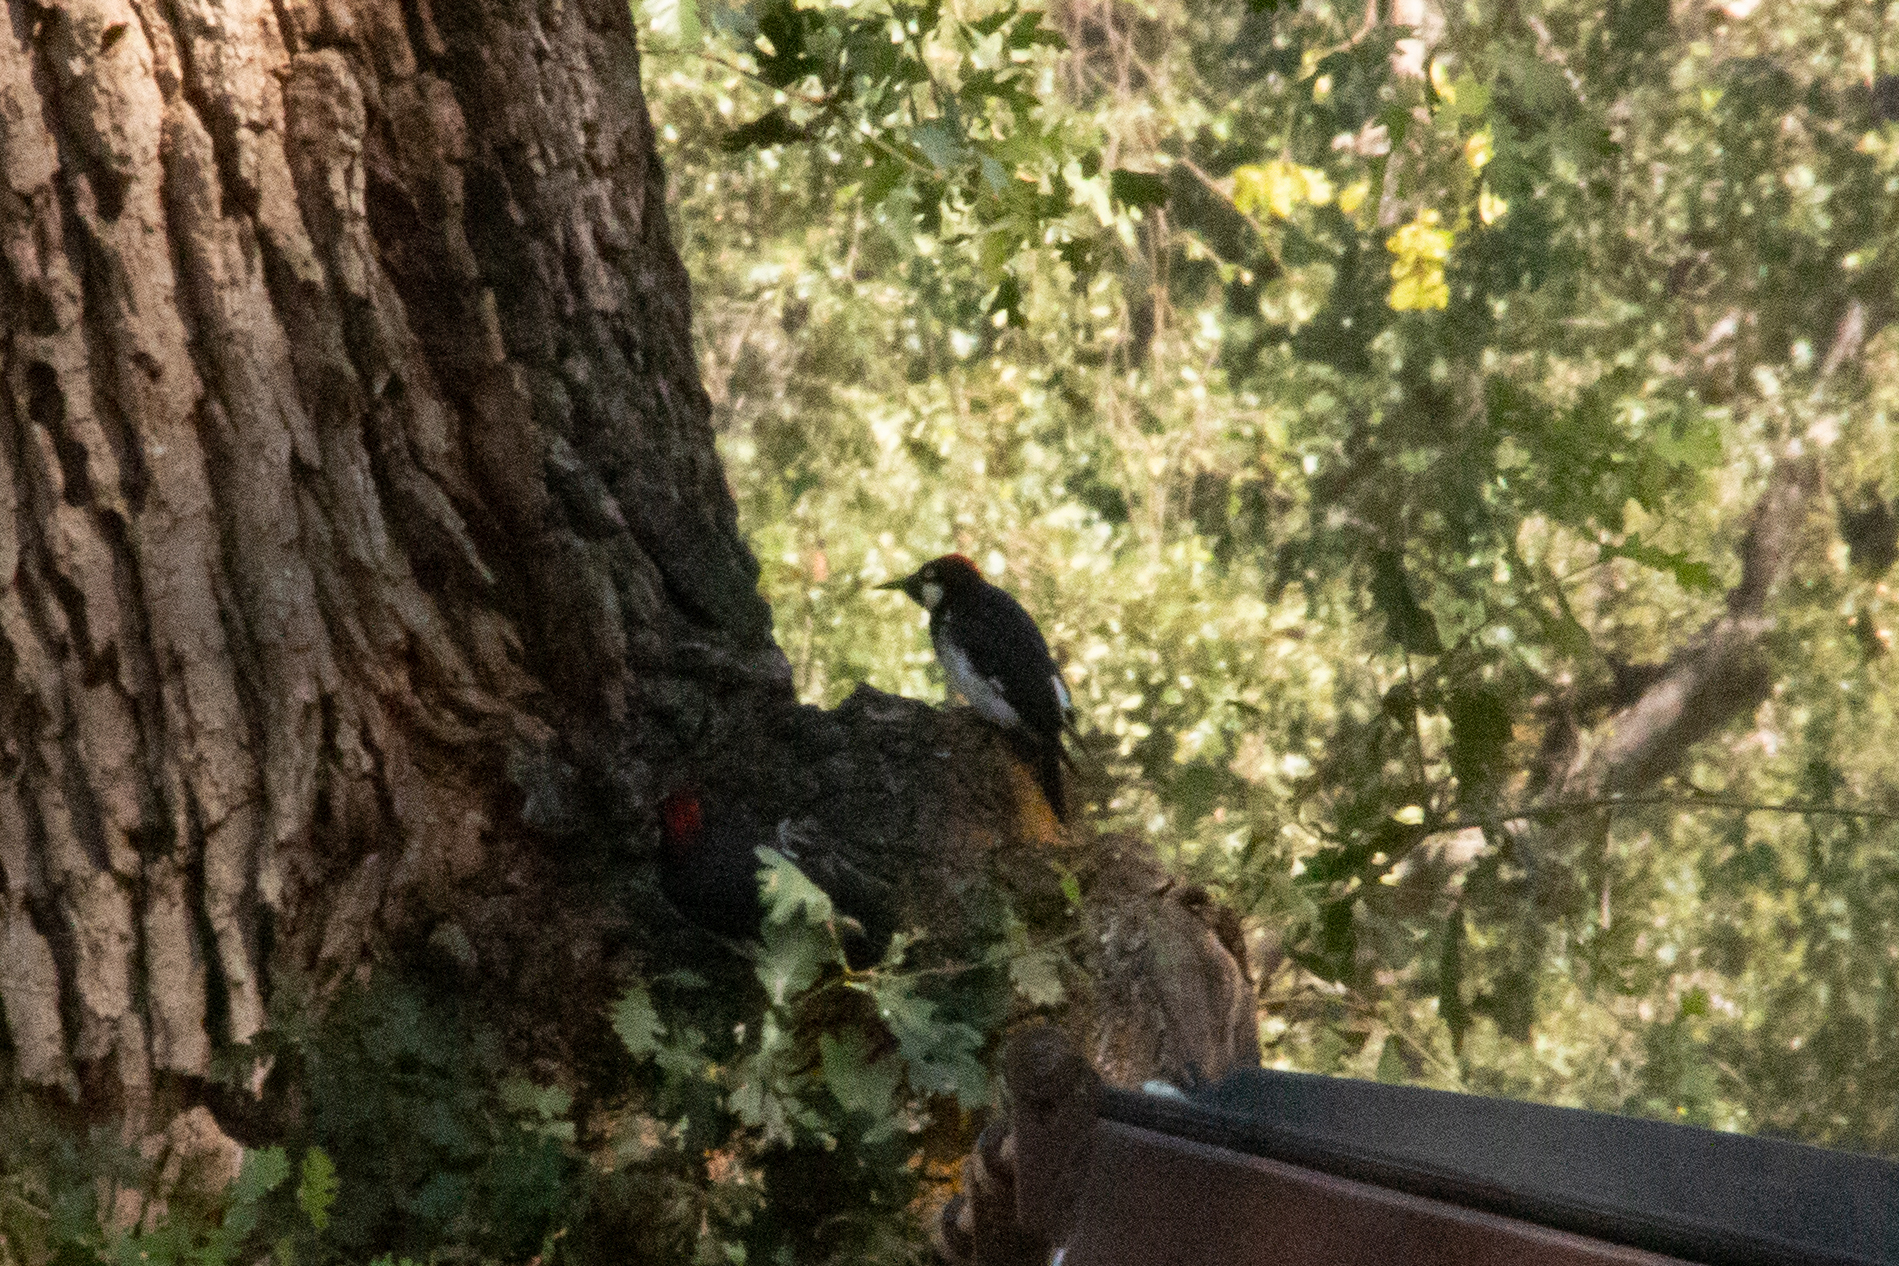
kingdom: Animalia
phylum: Chordata
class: Aves
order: Piciformes
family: Picidae
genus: Melanerpes
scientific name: Melanerpes formicivorus
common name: Acorn woodpecker
